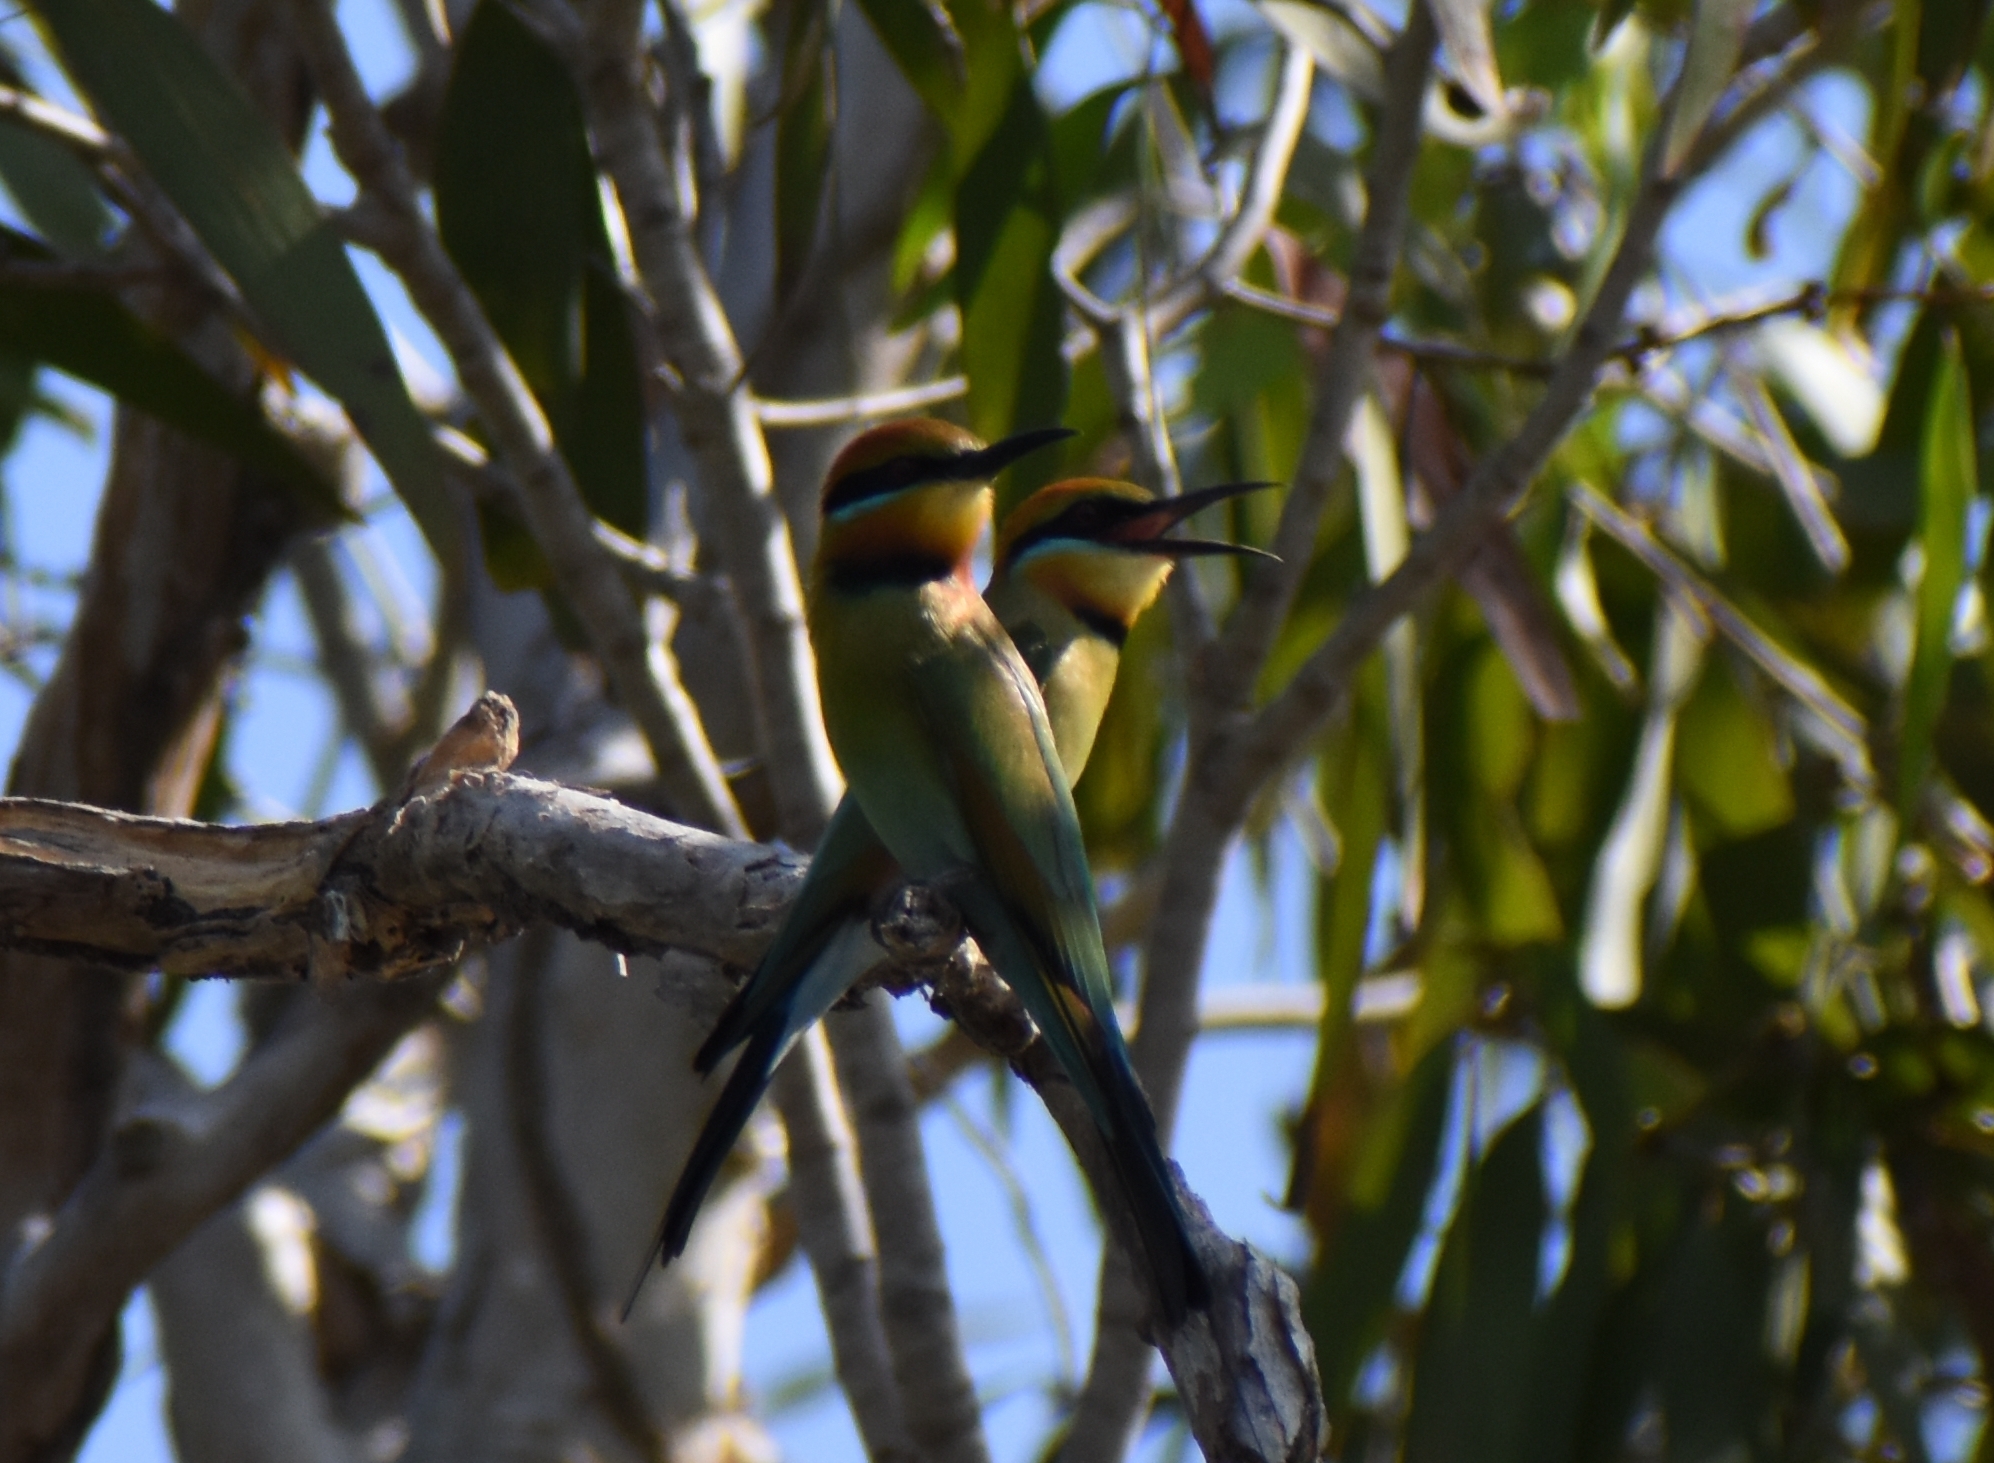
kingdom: Animalia
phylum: Chordata
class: Aves
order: Coraciiformes
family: Meropidae
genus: Merops
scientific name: Merops ornatus
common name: Rainbow bee-eater
